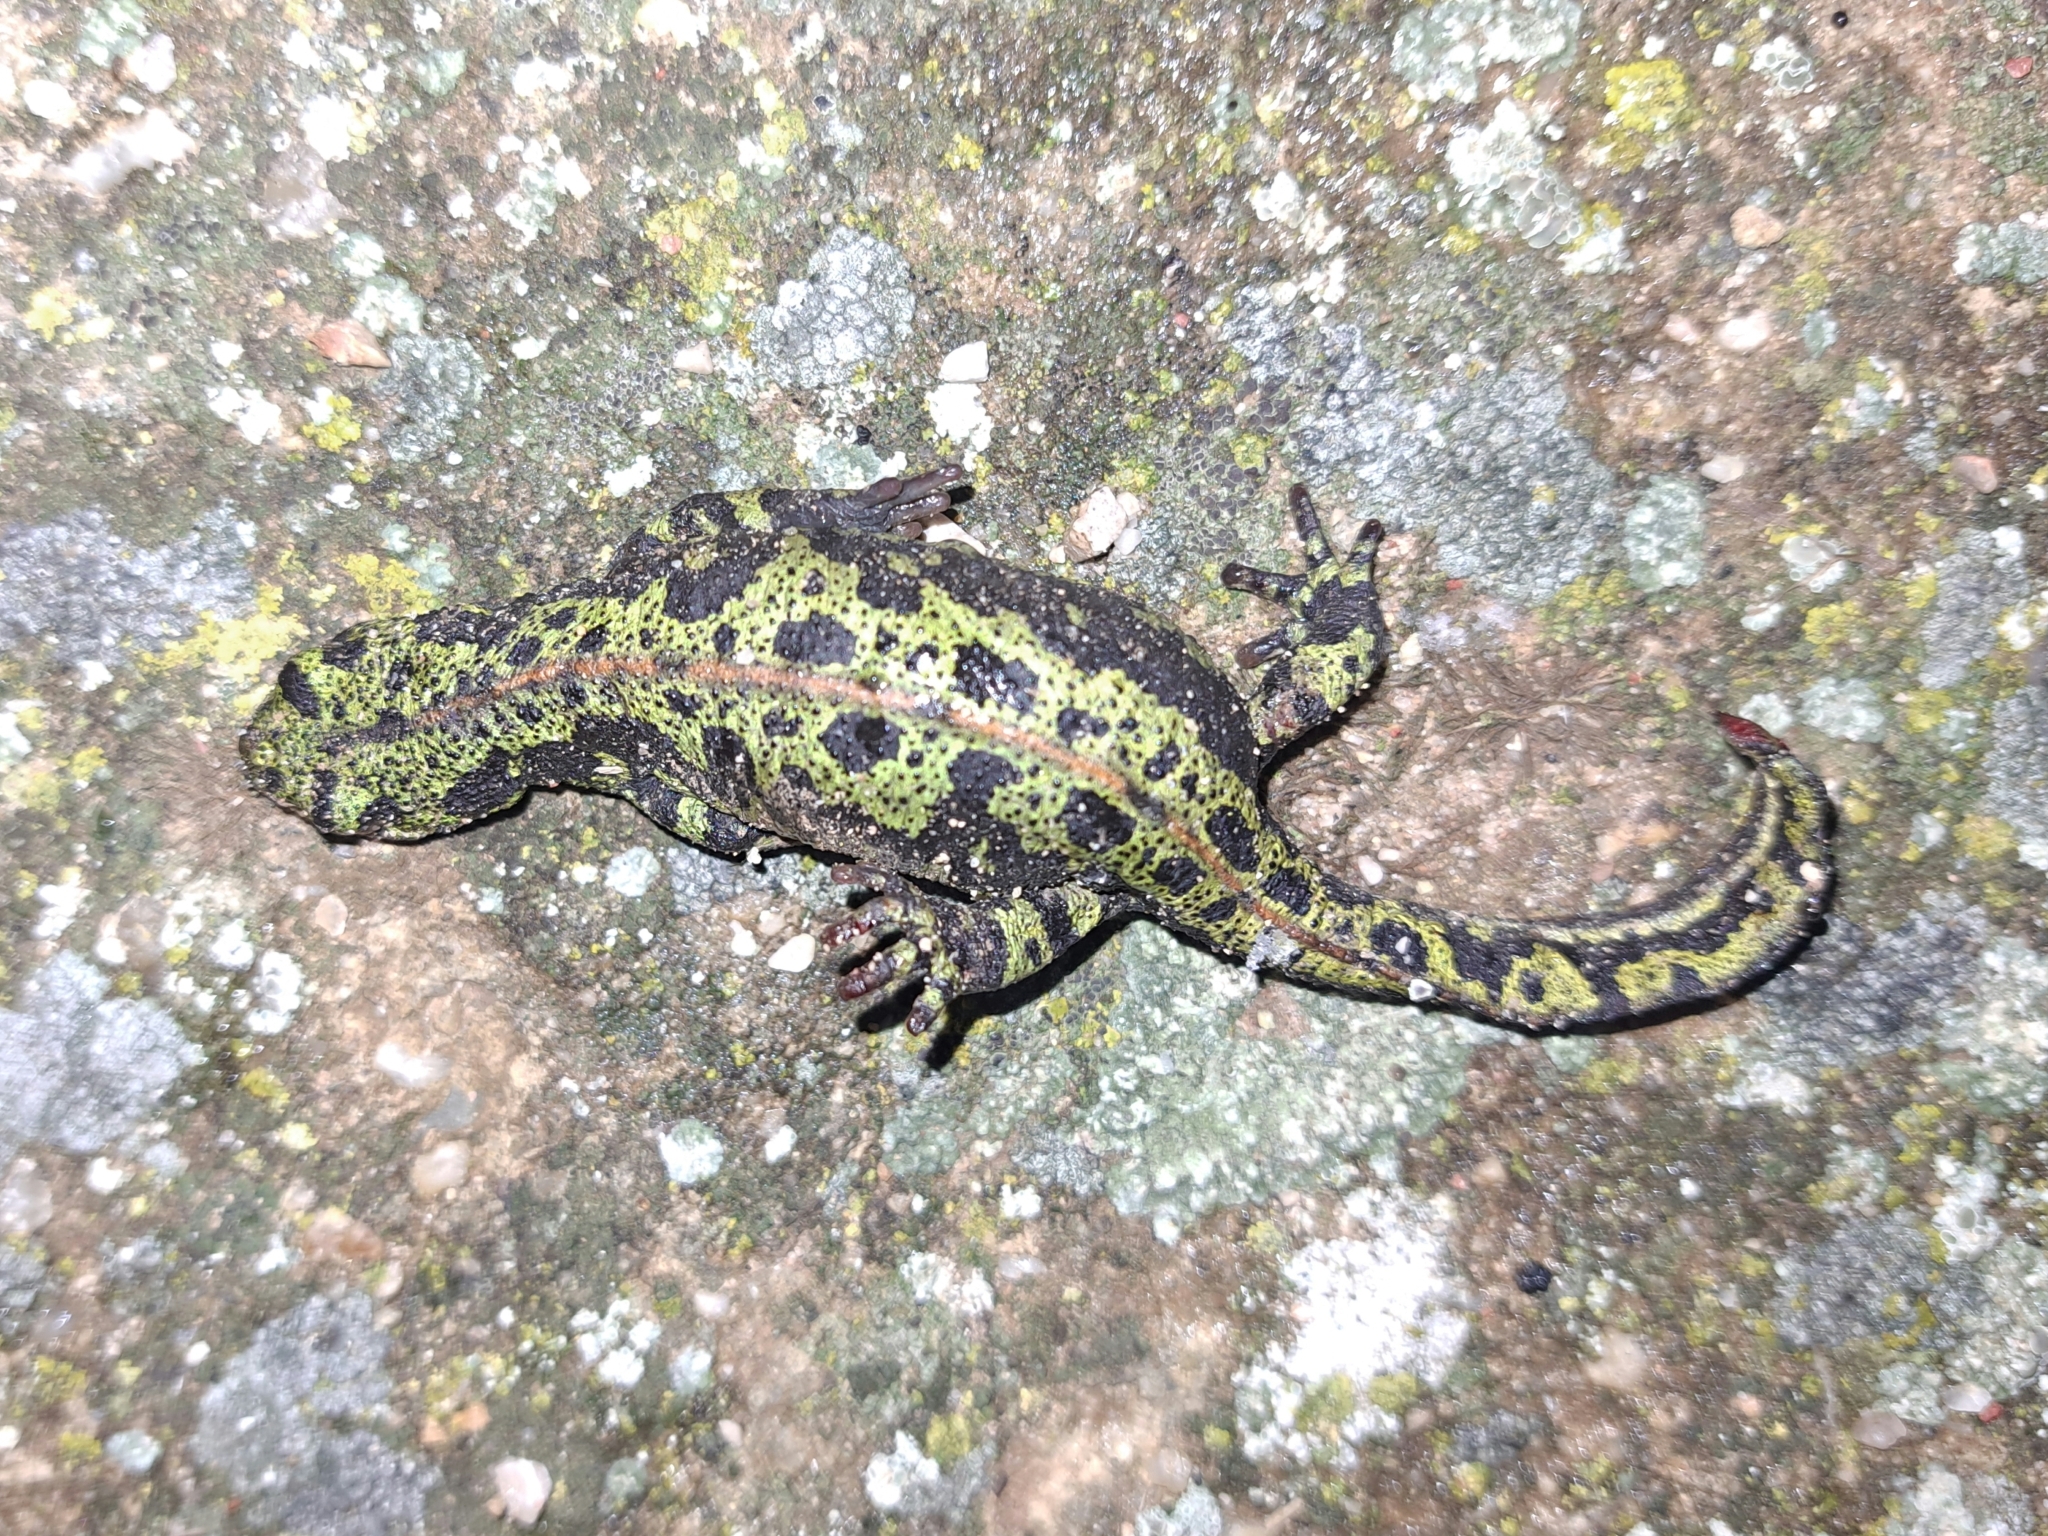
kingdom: Animalia
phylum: Chordata
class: Amphibia
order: Caudata
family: Salamandridae
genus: Triturus
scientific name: Triturus marmoratus
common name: Marbled newt
